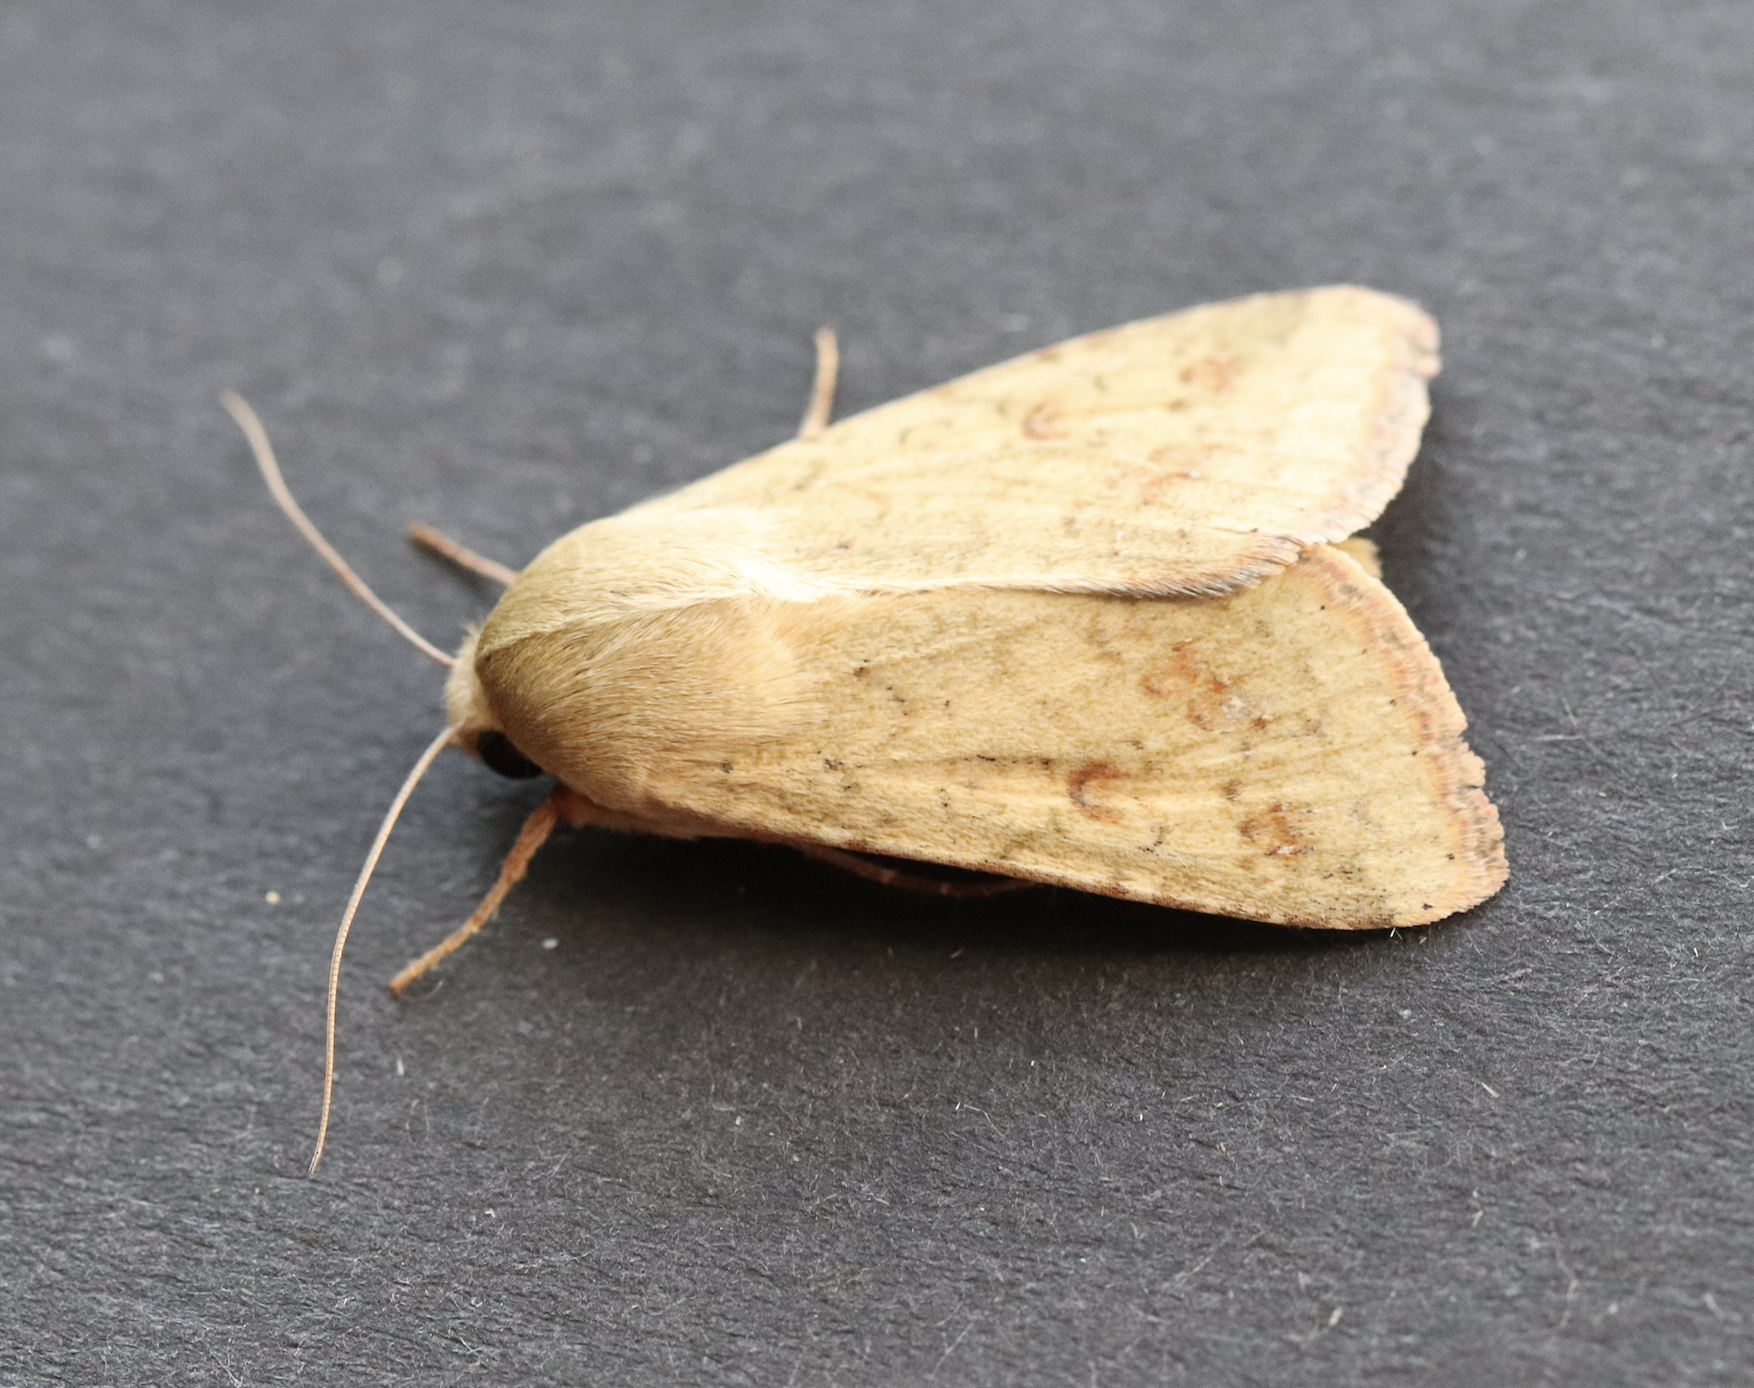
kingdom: Animalia
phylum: Arthropoda
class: Insecta
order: Lepidoptera
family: Noctuidae
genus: Helicoverpa
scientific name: Helicoverpa armigera
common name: Cotton bollworm
